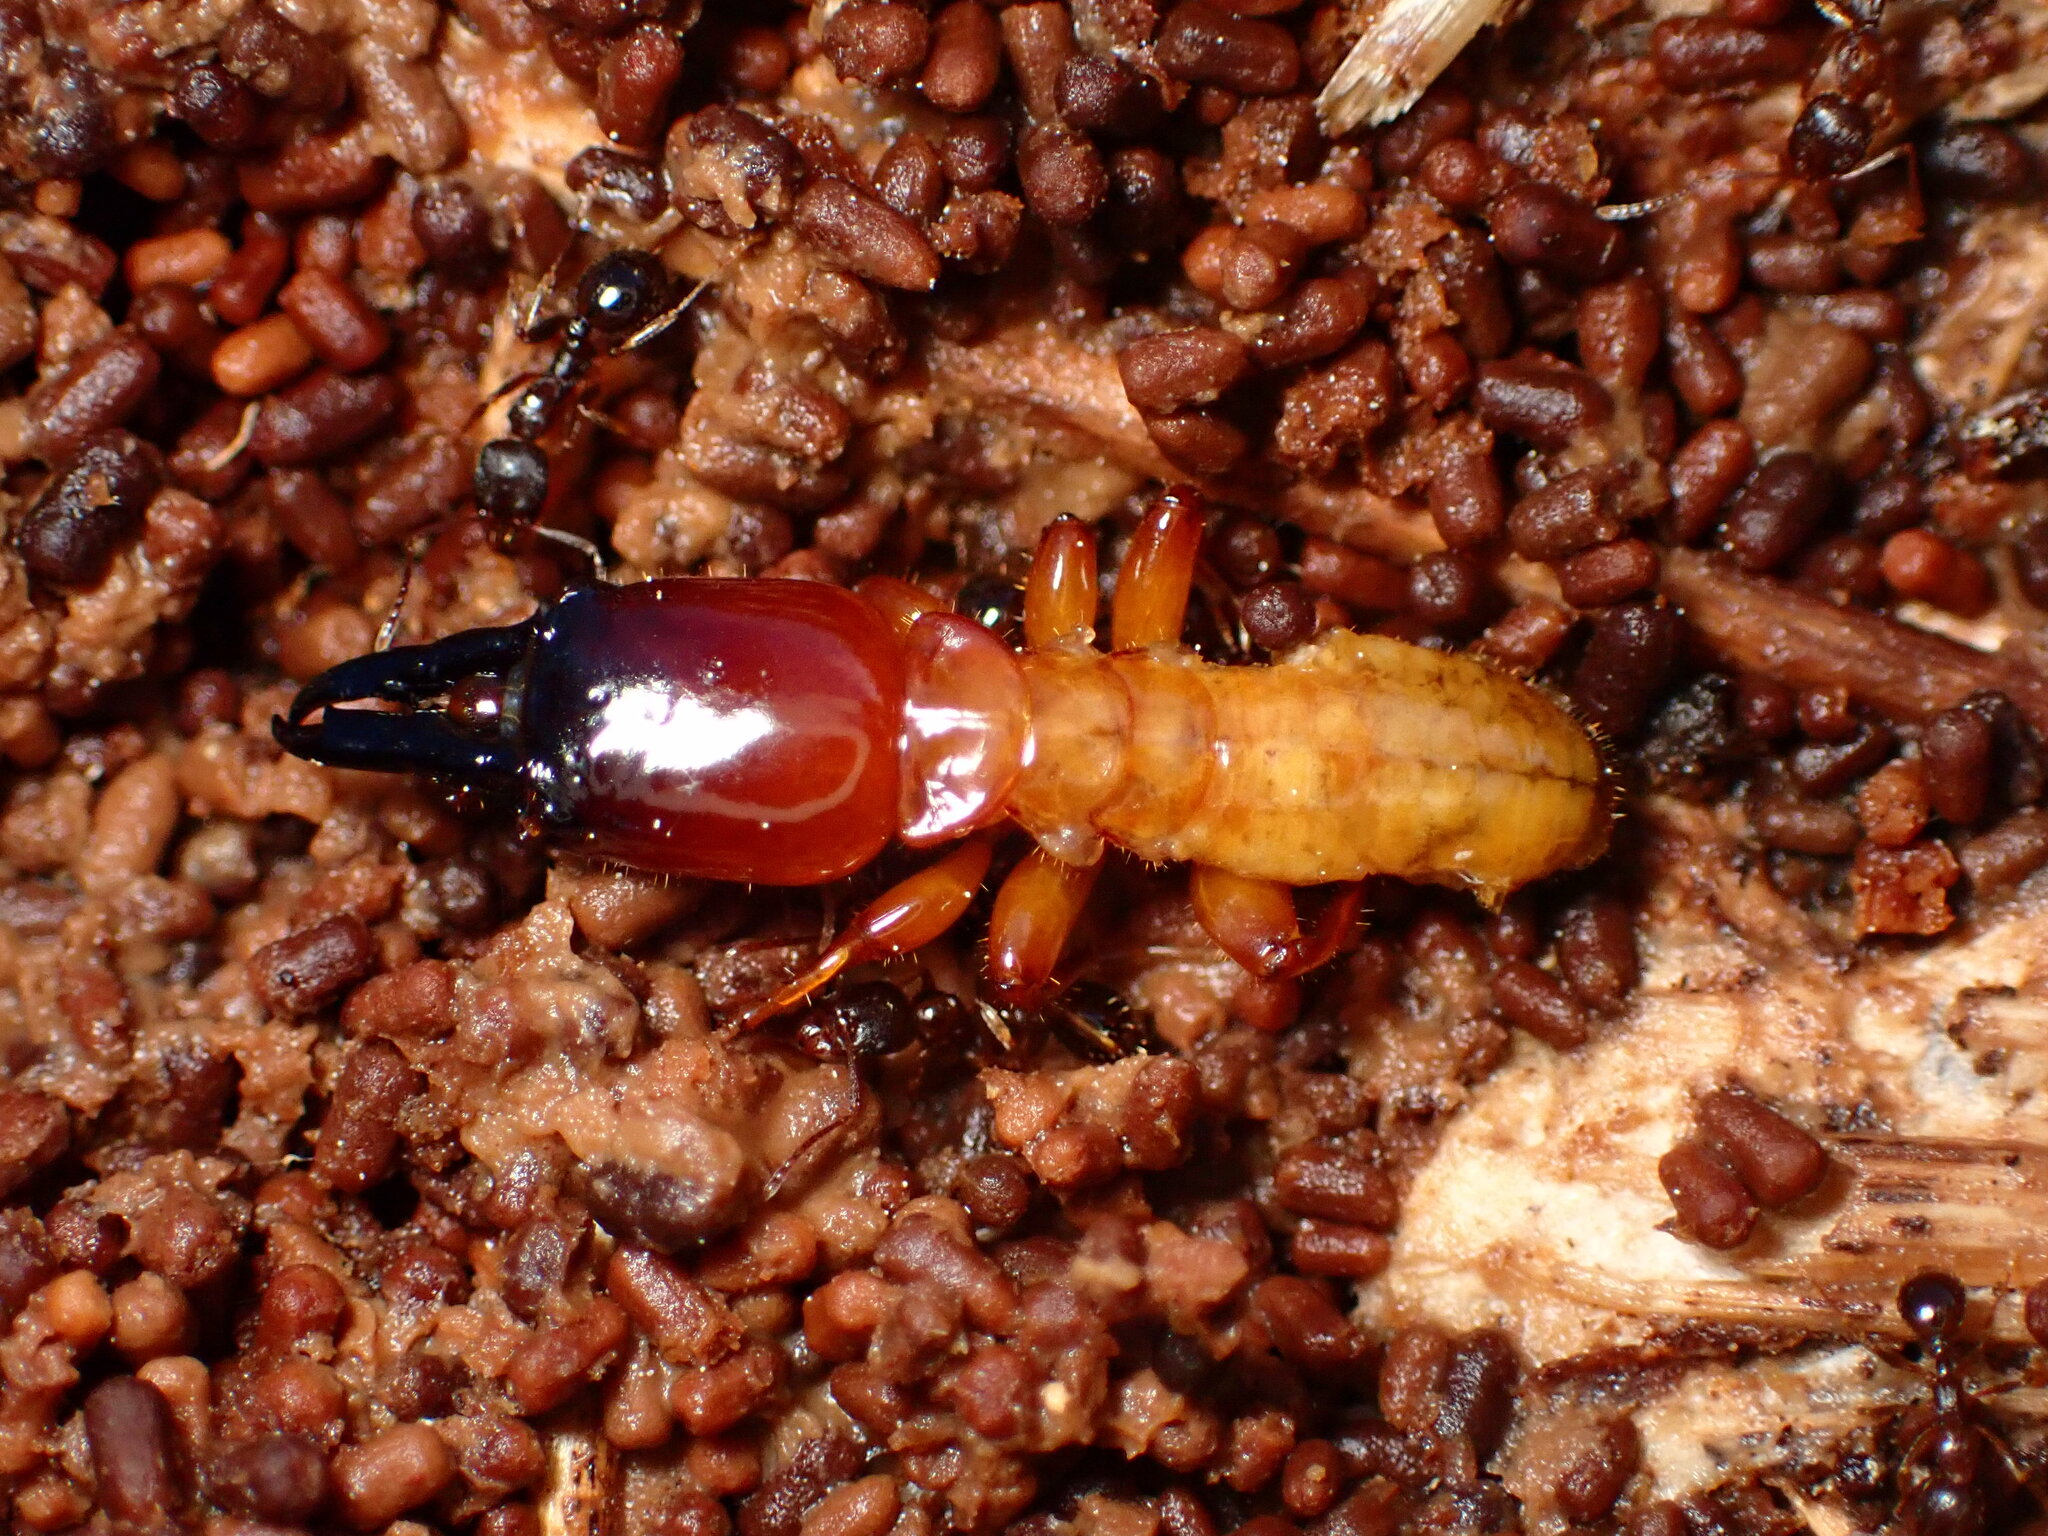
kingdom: Animalia
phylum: Arthropoda
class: Insecta
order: Blattodea
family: Archotermopsidae
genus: Zootermopsis
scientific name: Zootermopsis angusticollis
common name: Rottenwood termite
